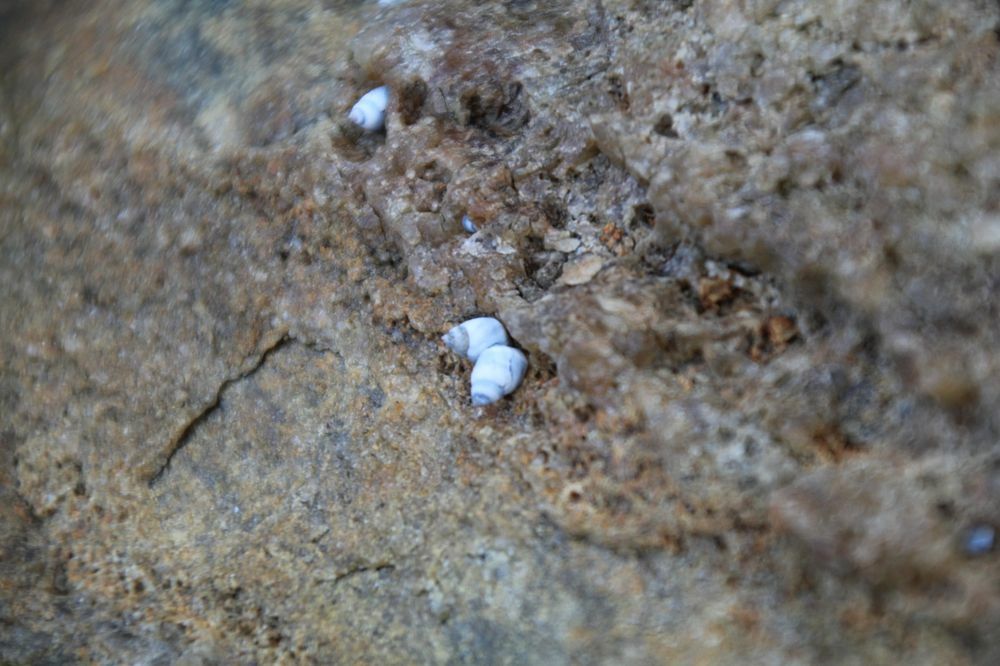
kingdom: Animalia
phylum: Mollusca
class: Gastropoda
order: Littorinimorpha
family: Littorinidae
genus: Austrolittorina
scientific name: Austrolittorina unifasciata
